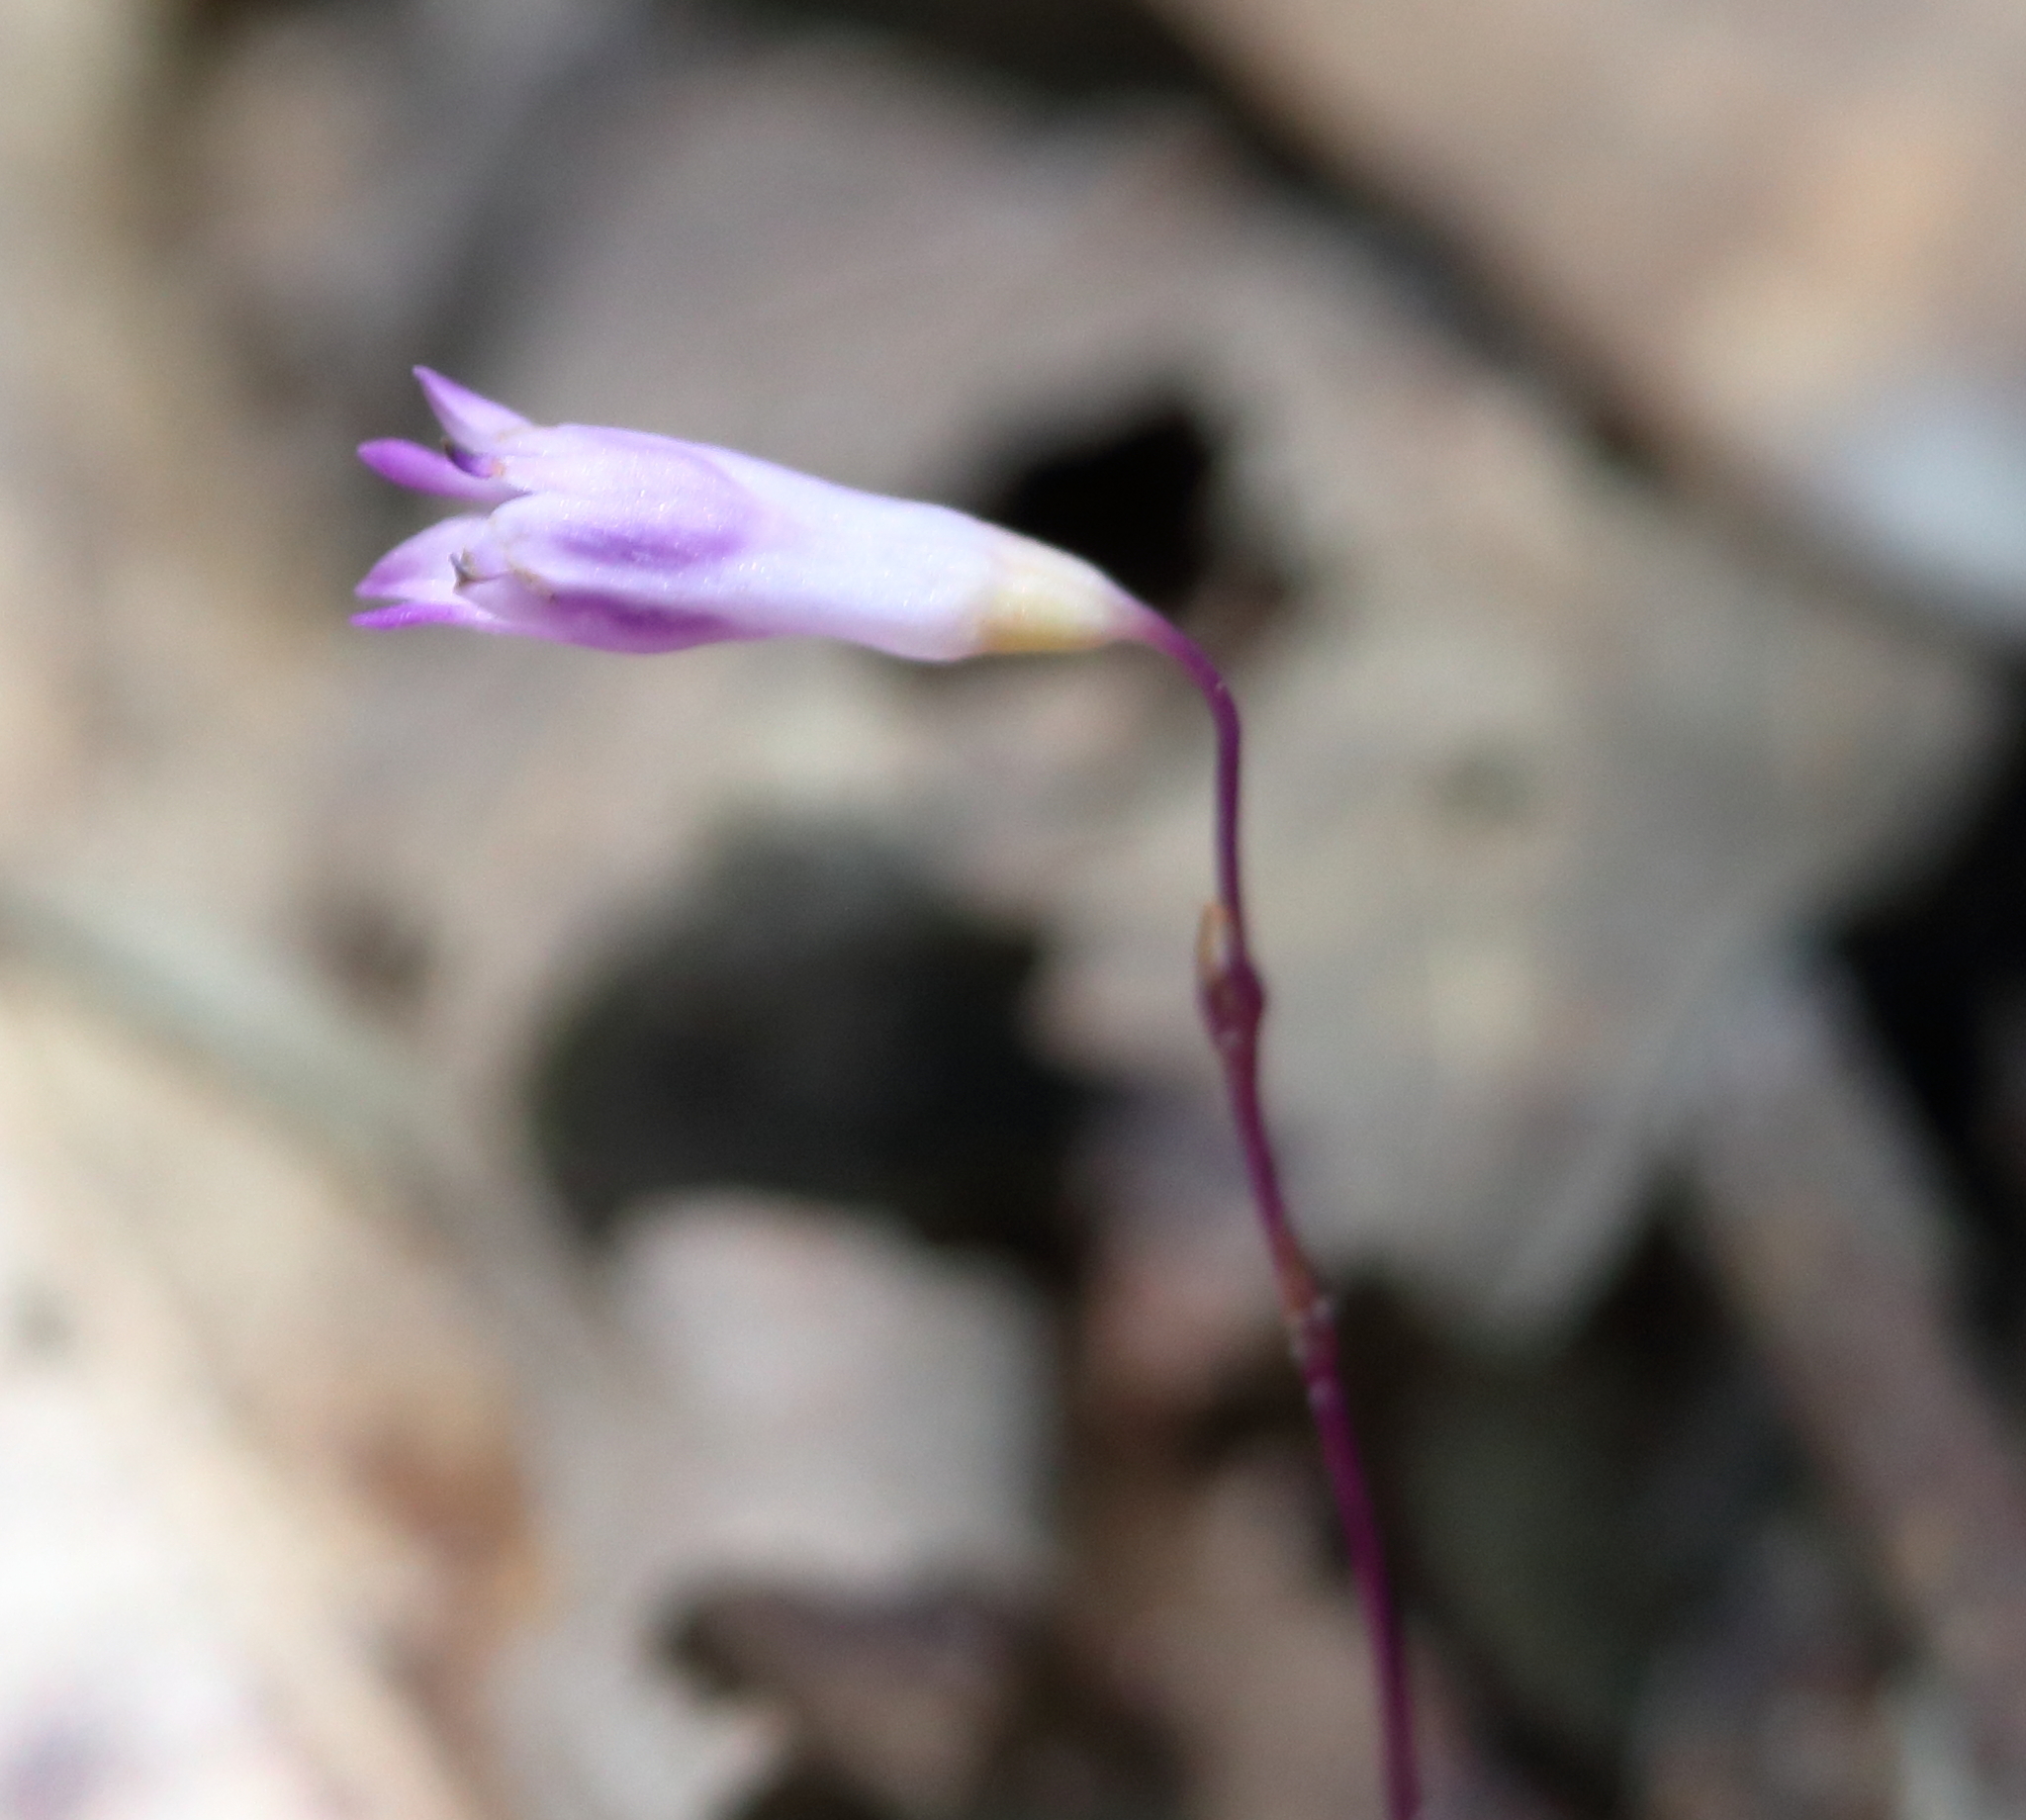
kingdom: Plantae
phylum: Tracheophyta
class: Liliopsida
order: Dioscoreales
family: Burmanniaceae
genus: Apteria
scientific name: Apteria aphylla
